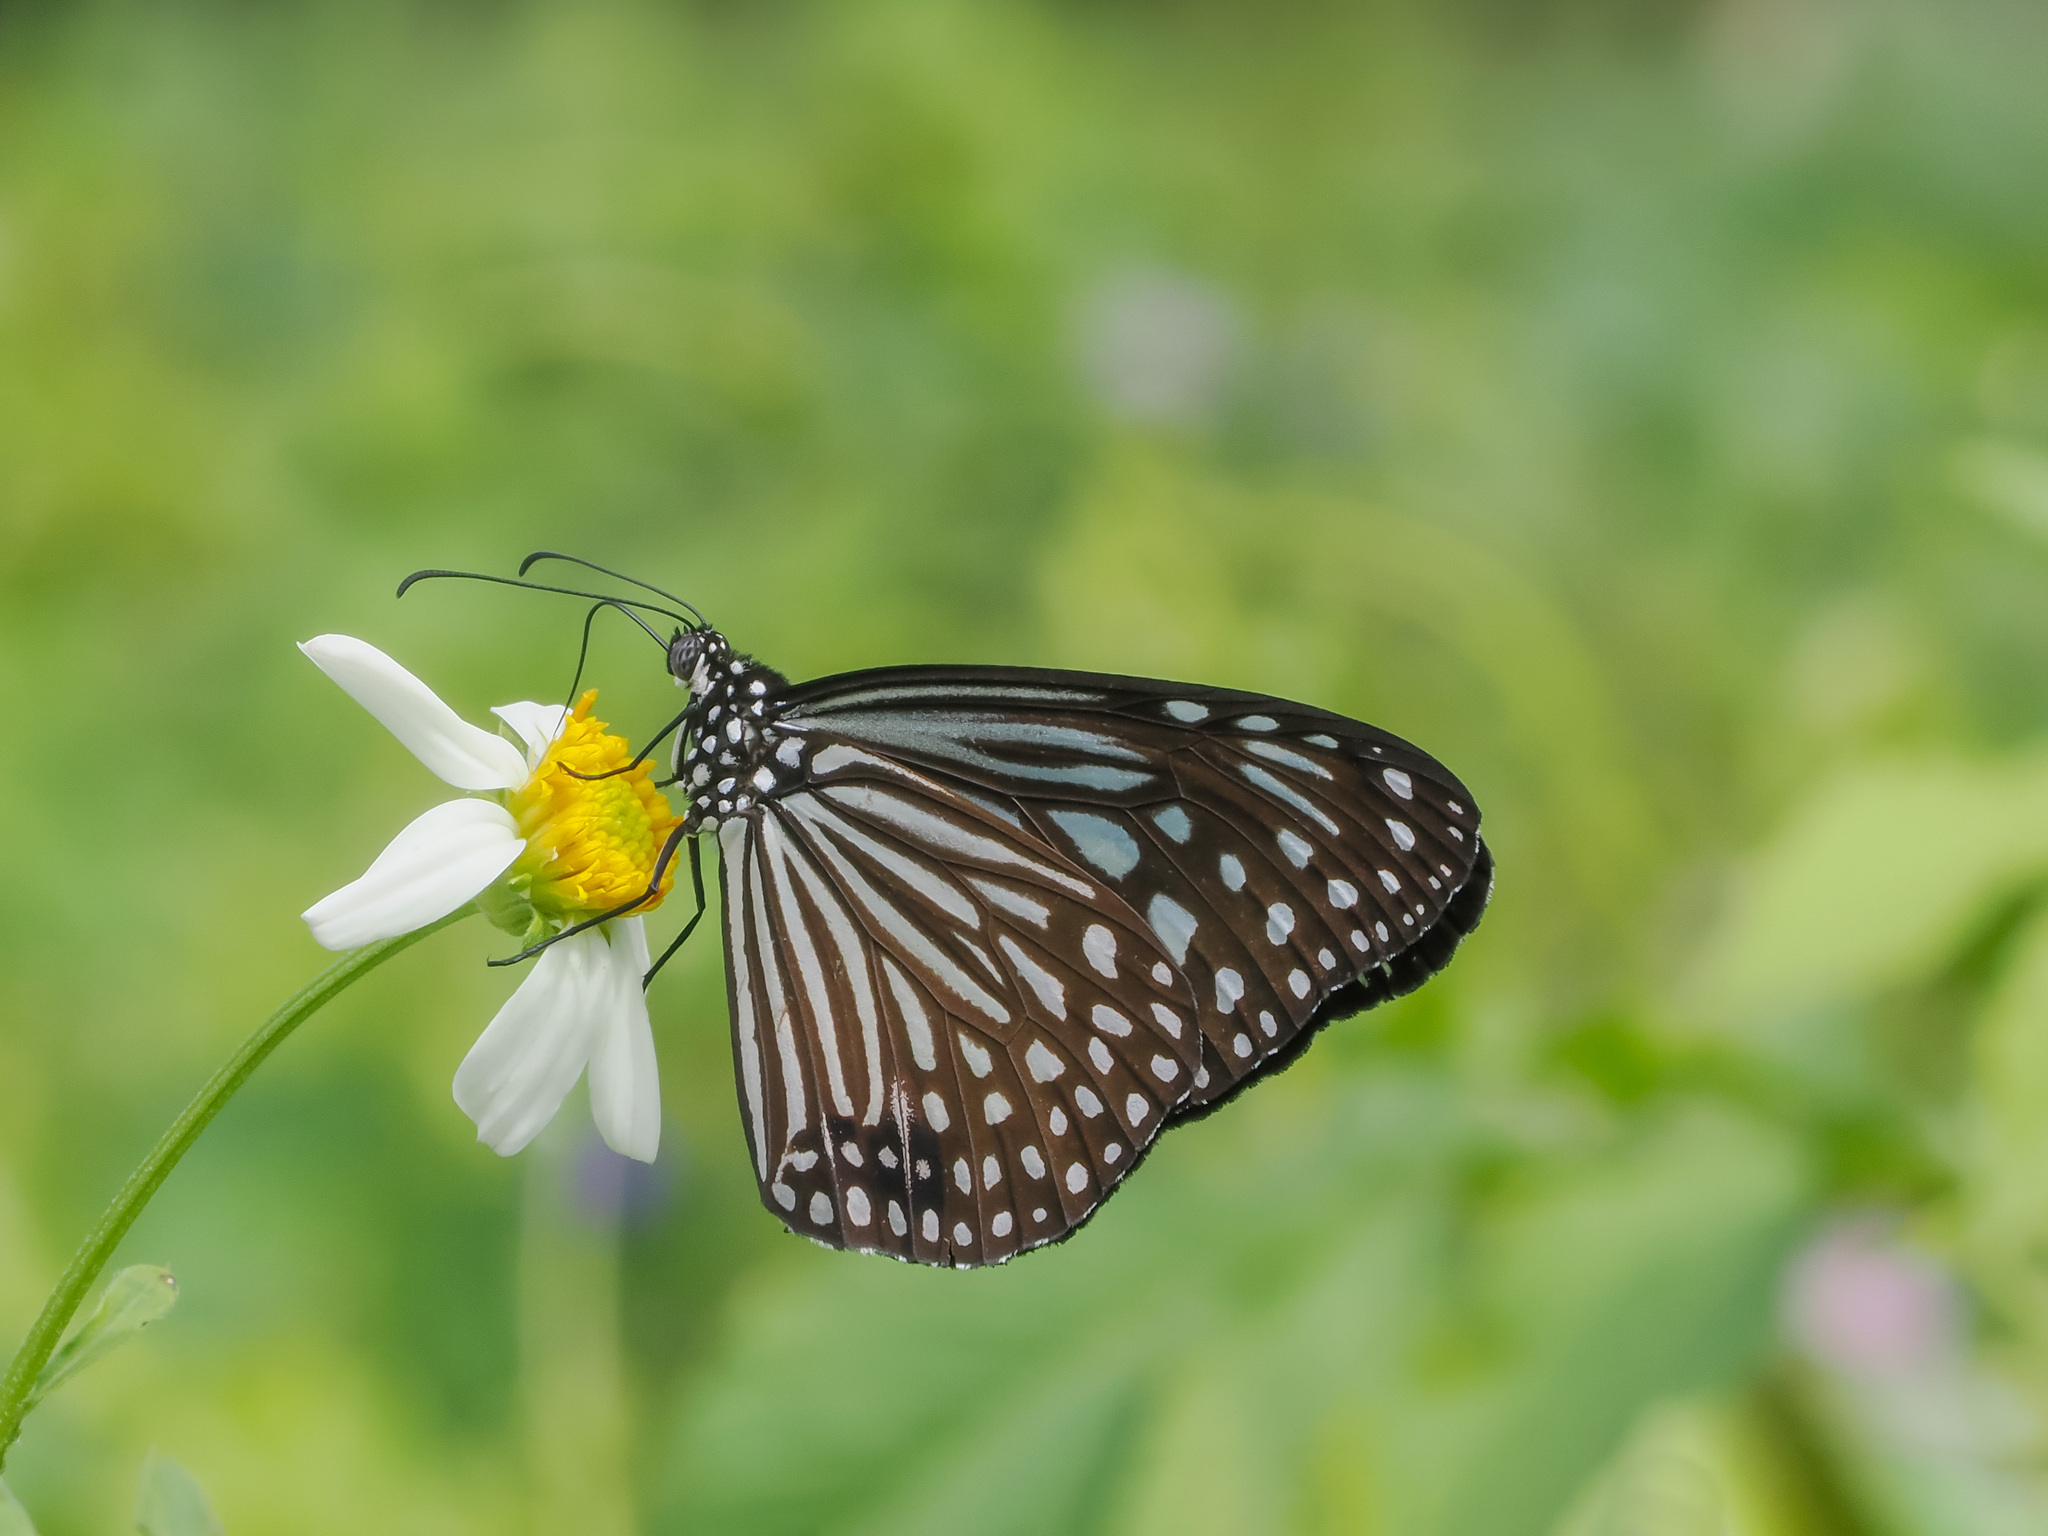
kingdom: Animalia
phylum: Arthropoda
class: Insecta
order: Lepidoptera
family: Nymphalidae
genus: Parantica
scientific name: Parantica agleoides
